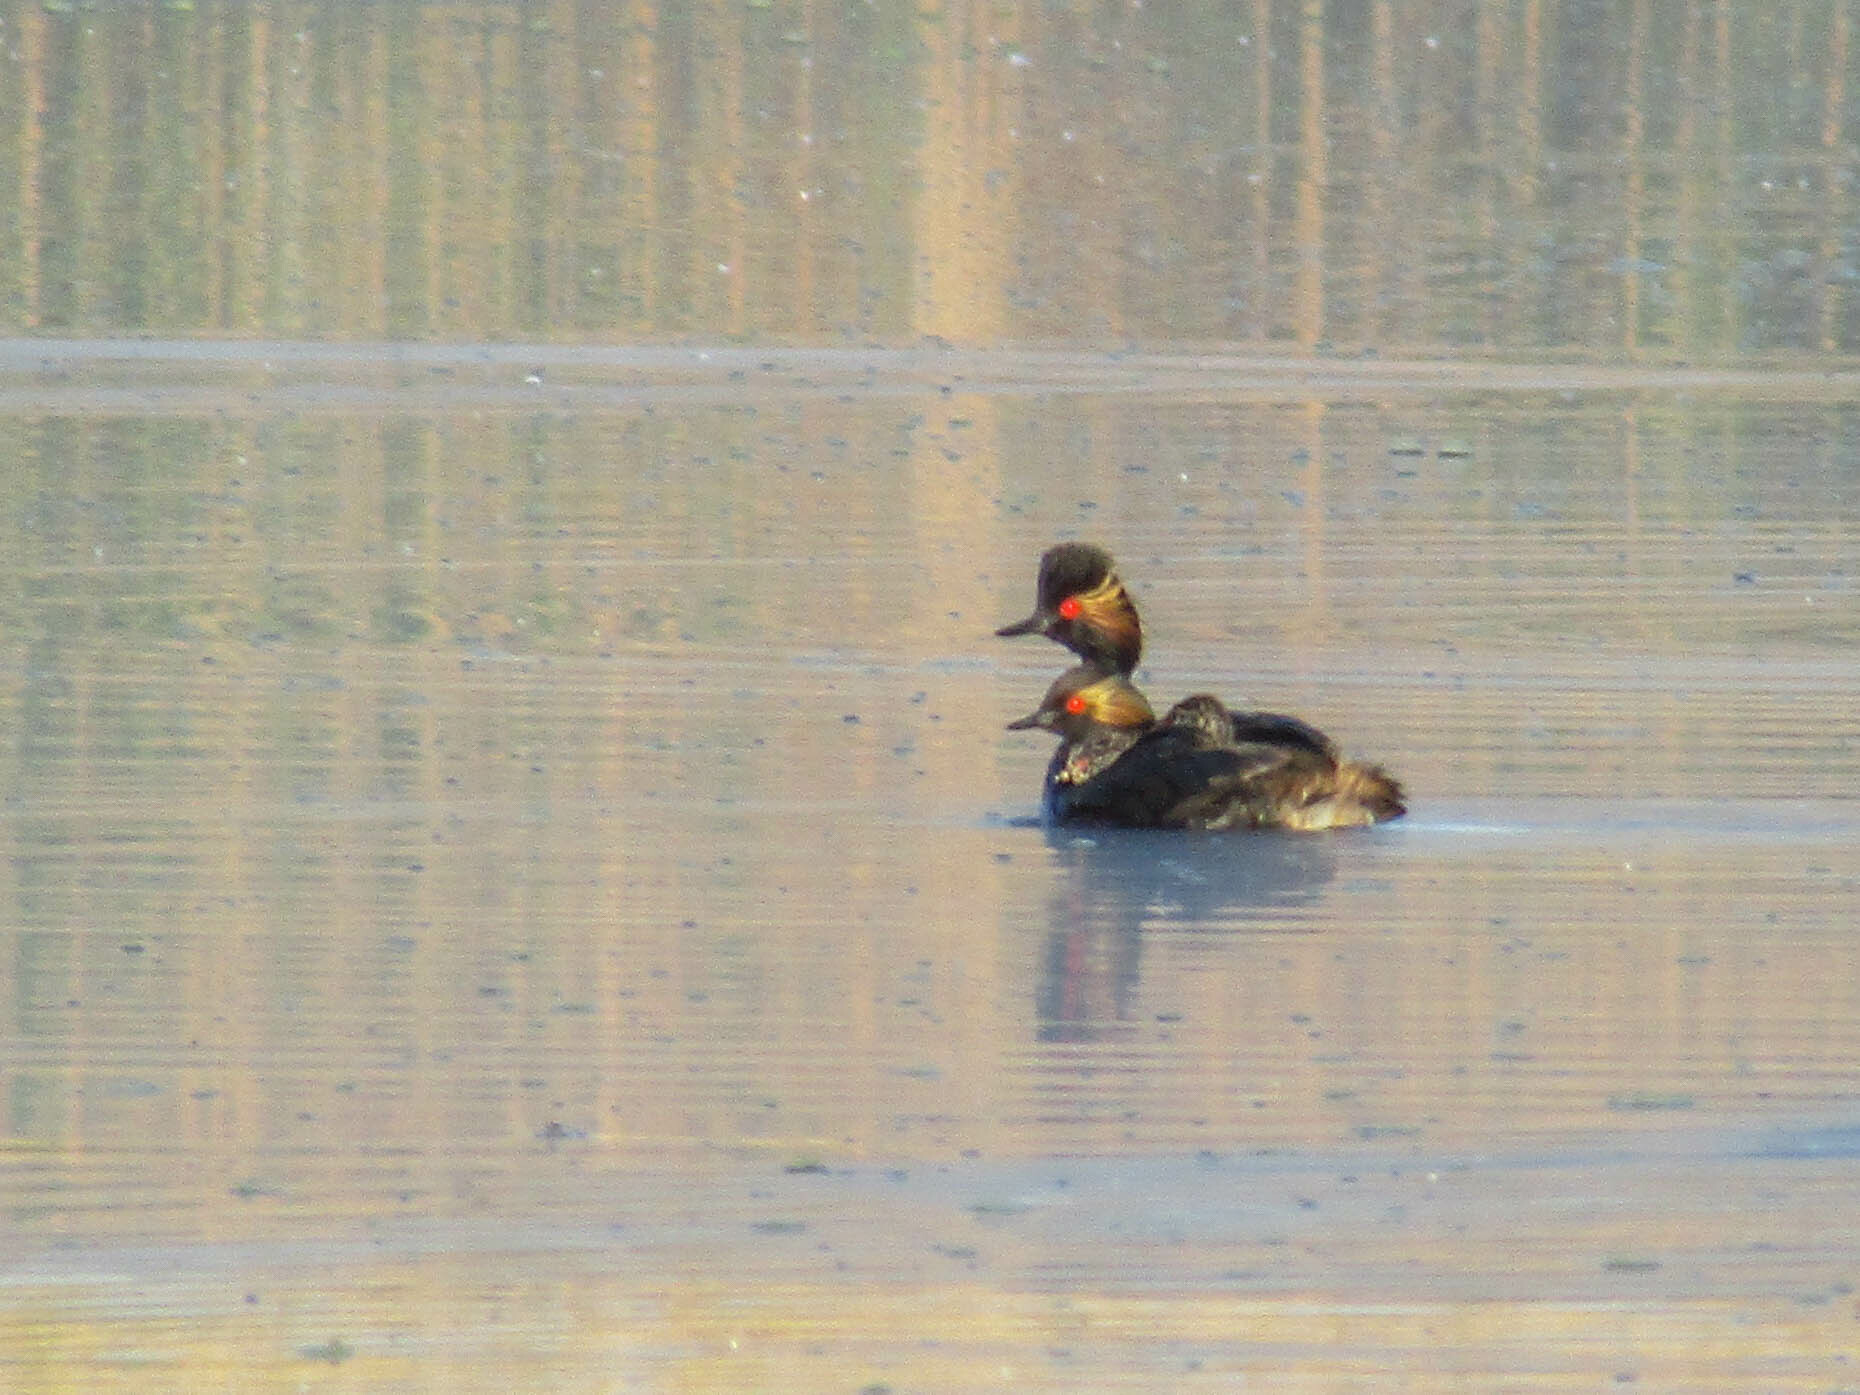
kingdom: Animalia
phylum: Chordata
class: Aves
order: Podicipediformes
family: Podicipedidae
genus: Podiceps
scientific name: Podiceps nigricollis
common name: Black-necked grebe
